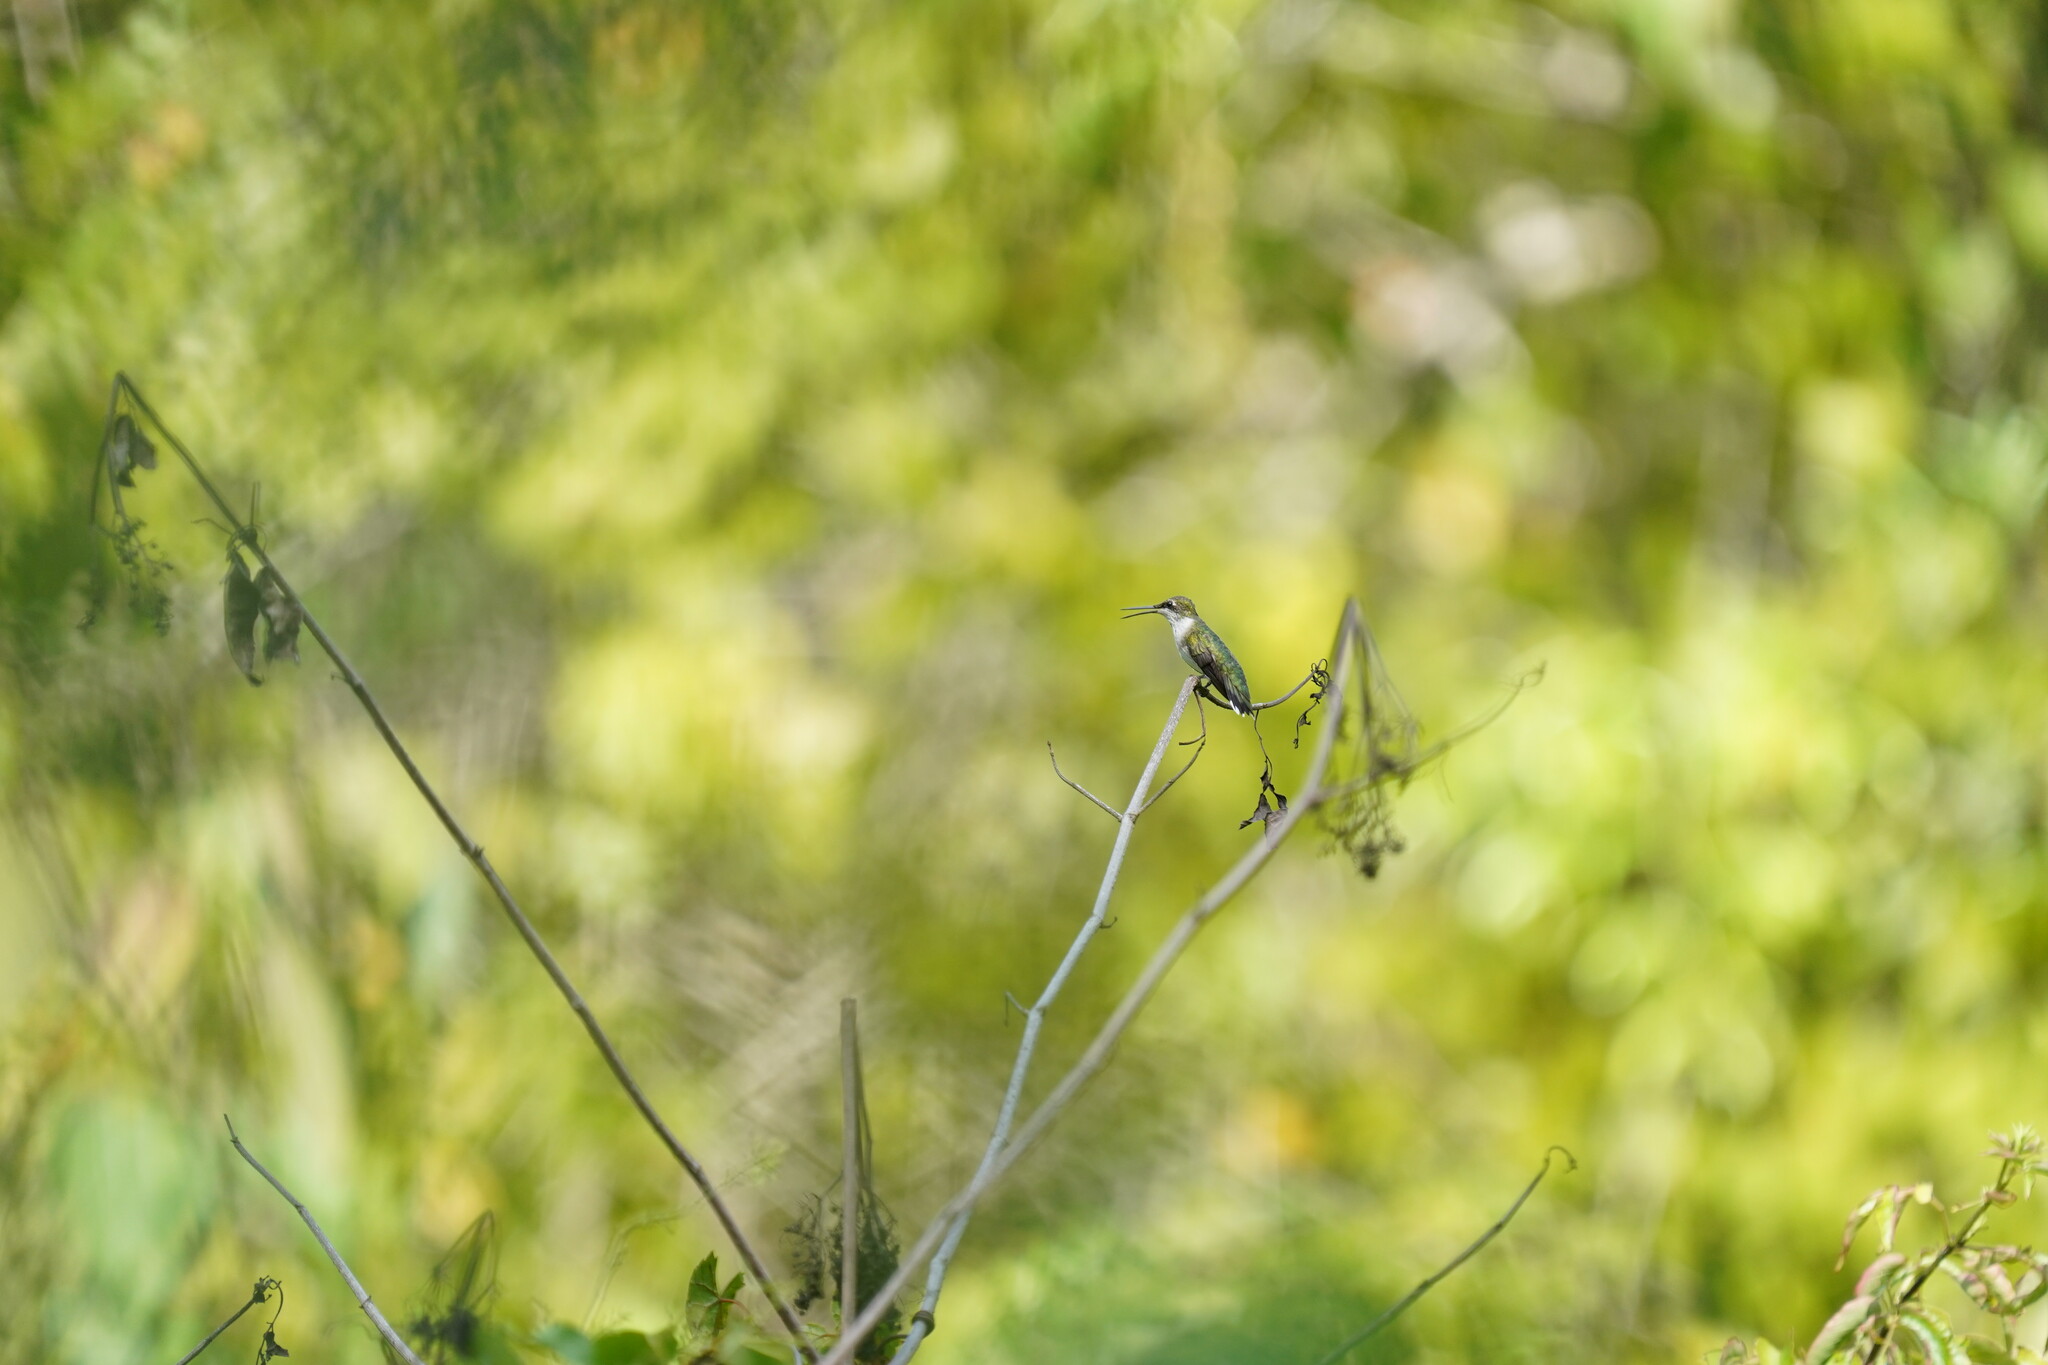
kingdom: Animalia
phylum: Chordata
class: Aves
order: Apodiformes
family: Trochilidae
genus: Archilochus
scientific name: Archilochus colubris
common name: Ruby-throated hummingbird
